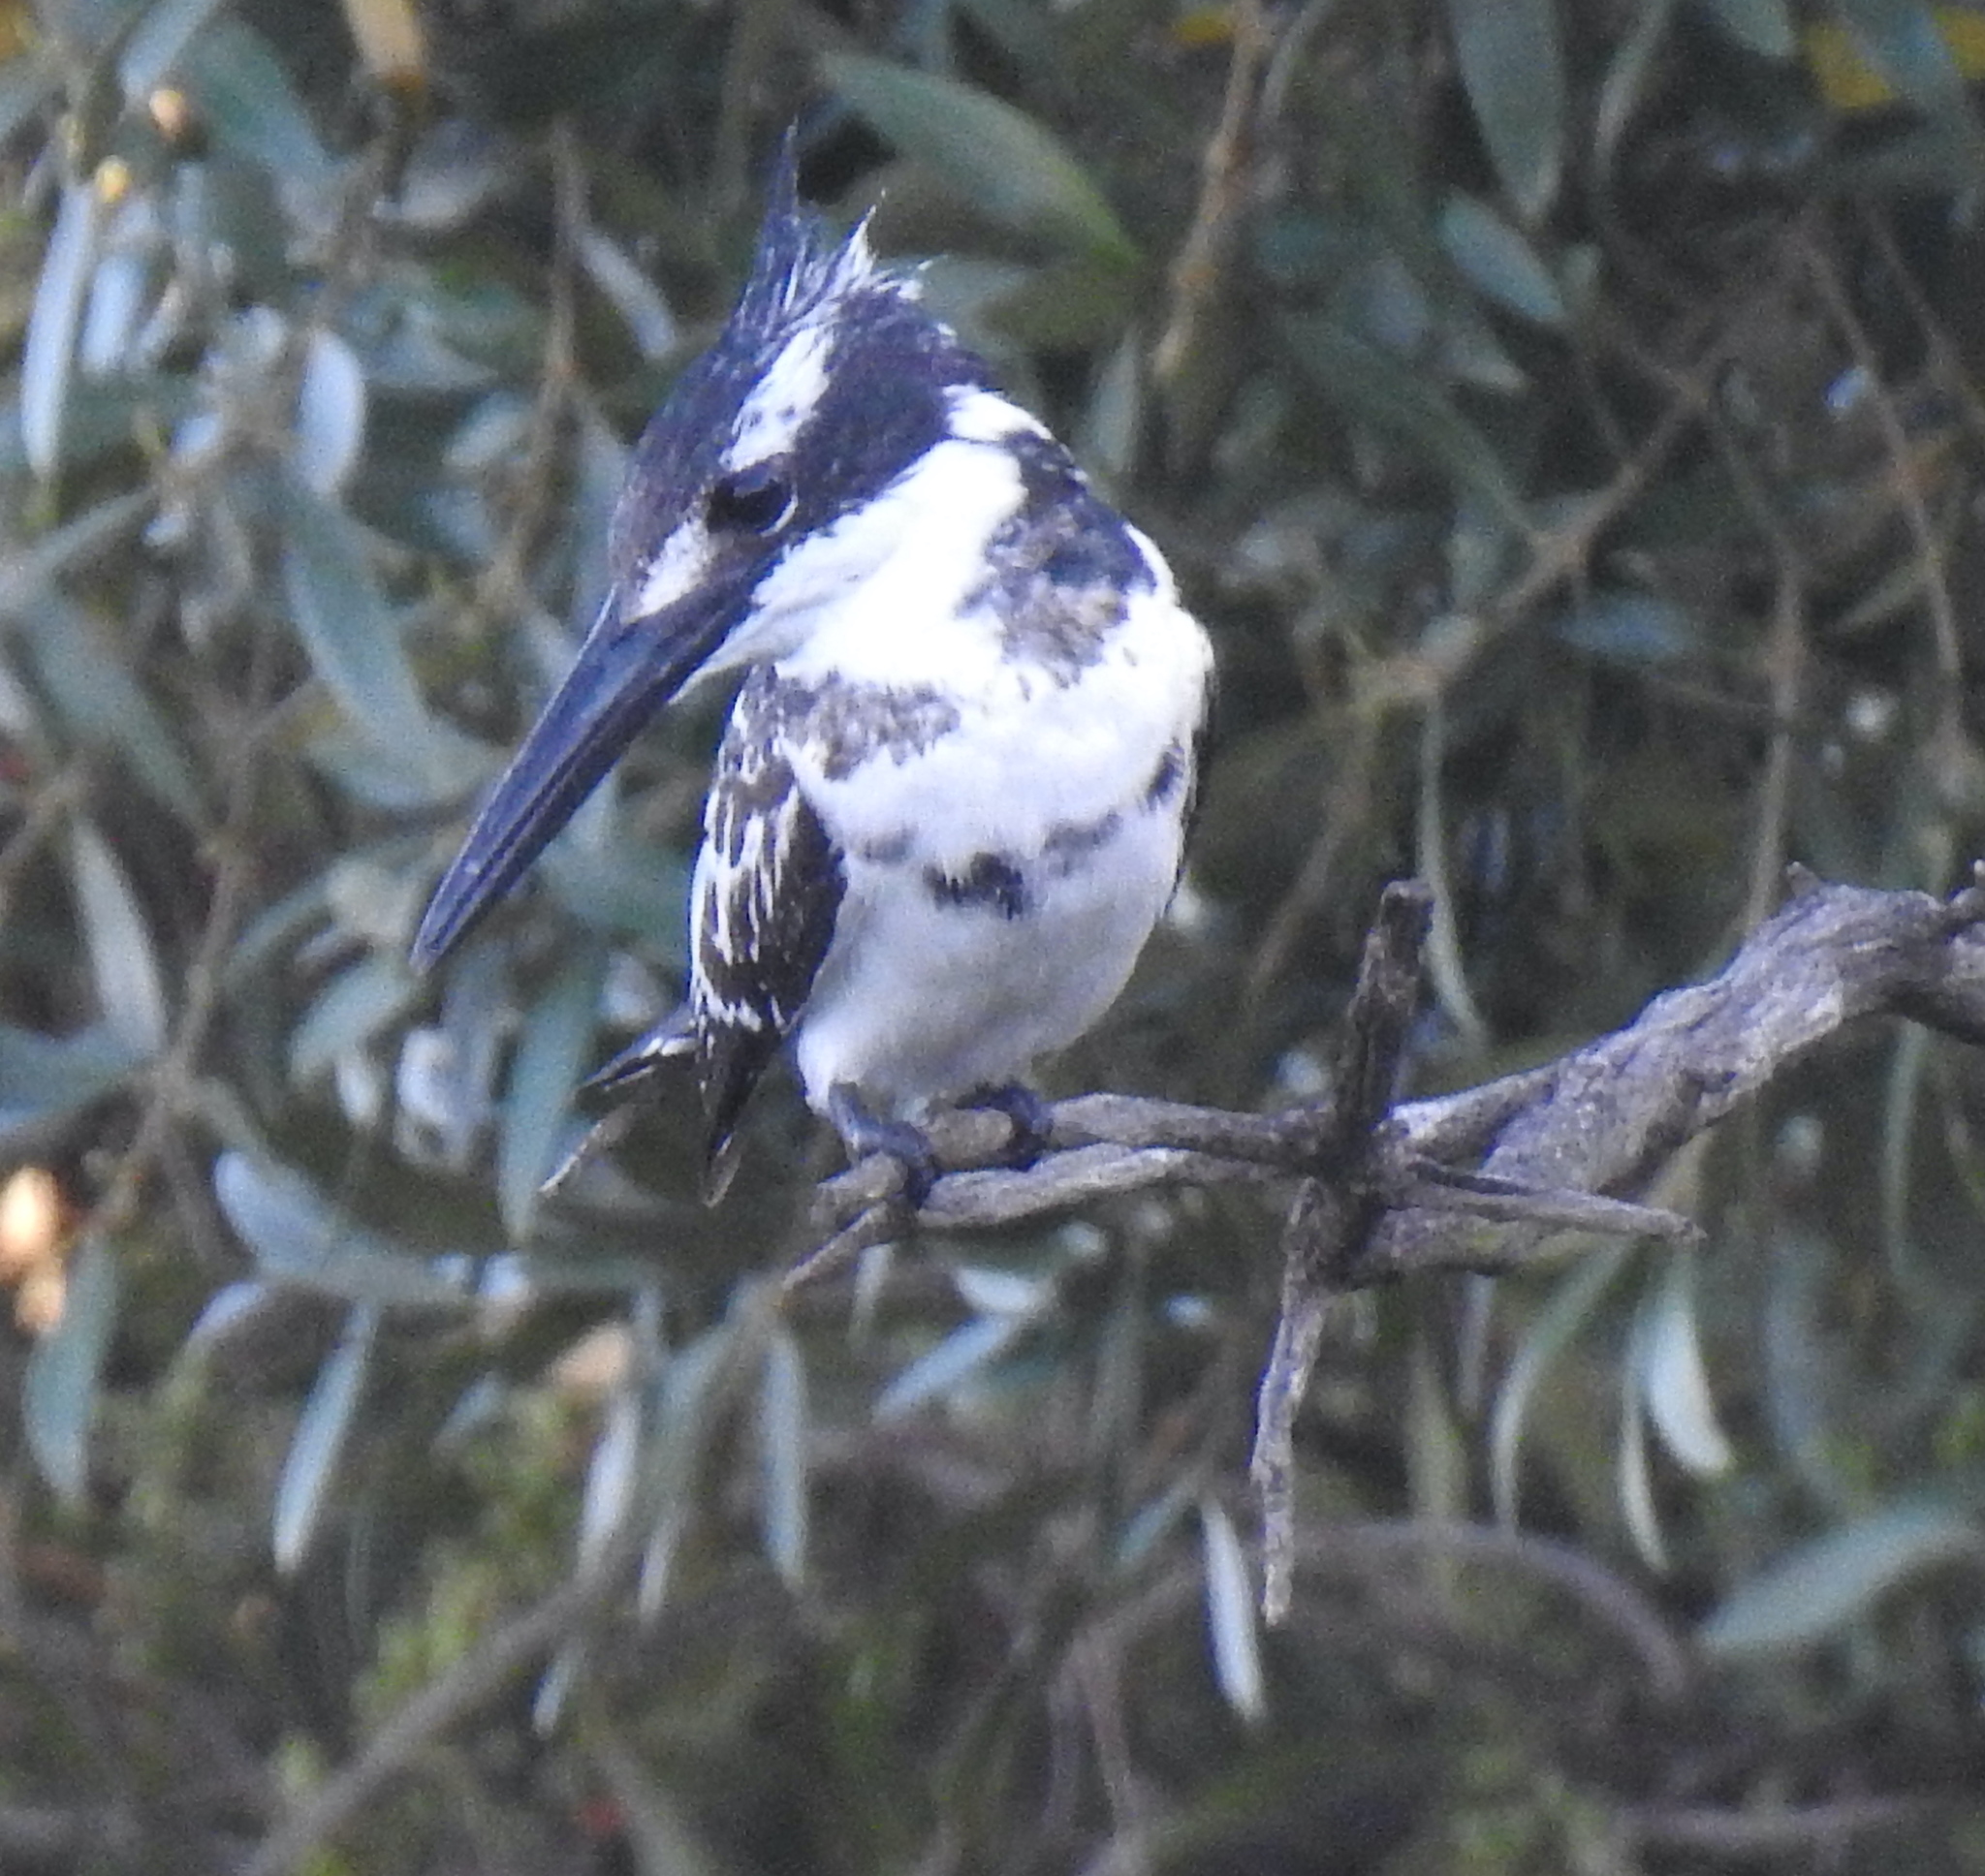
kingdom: Animalia
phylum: Chordata
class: Aves
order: Coraciiformes
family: Alcedinidae
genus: Ceryle
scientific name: Ceryle rudis
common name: Pied kingfisher
